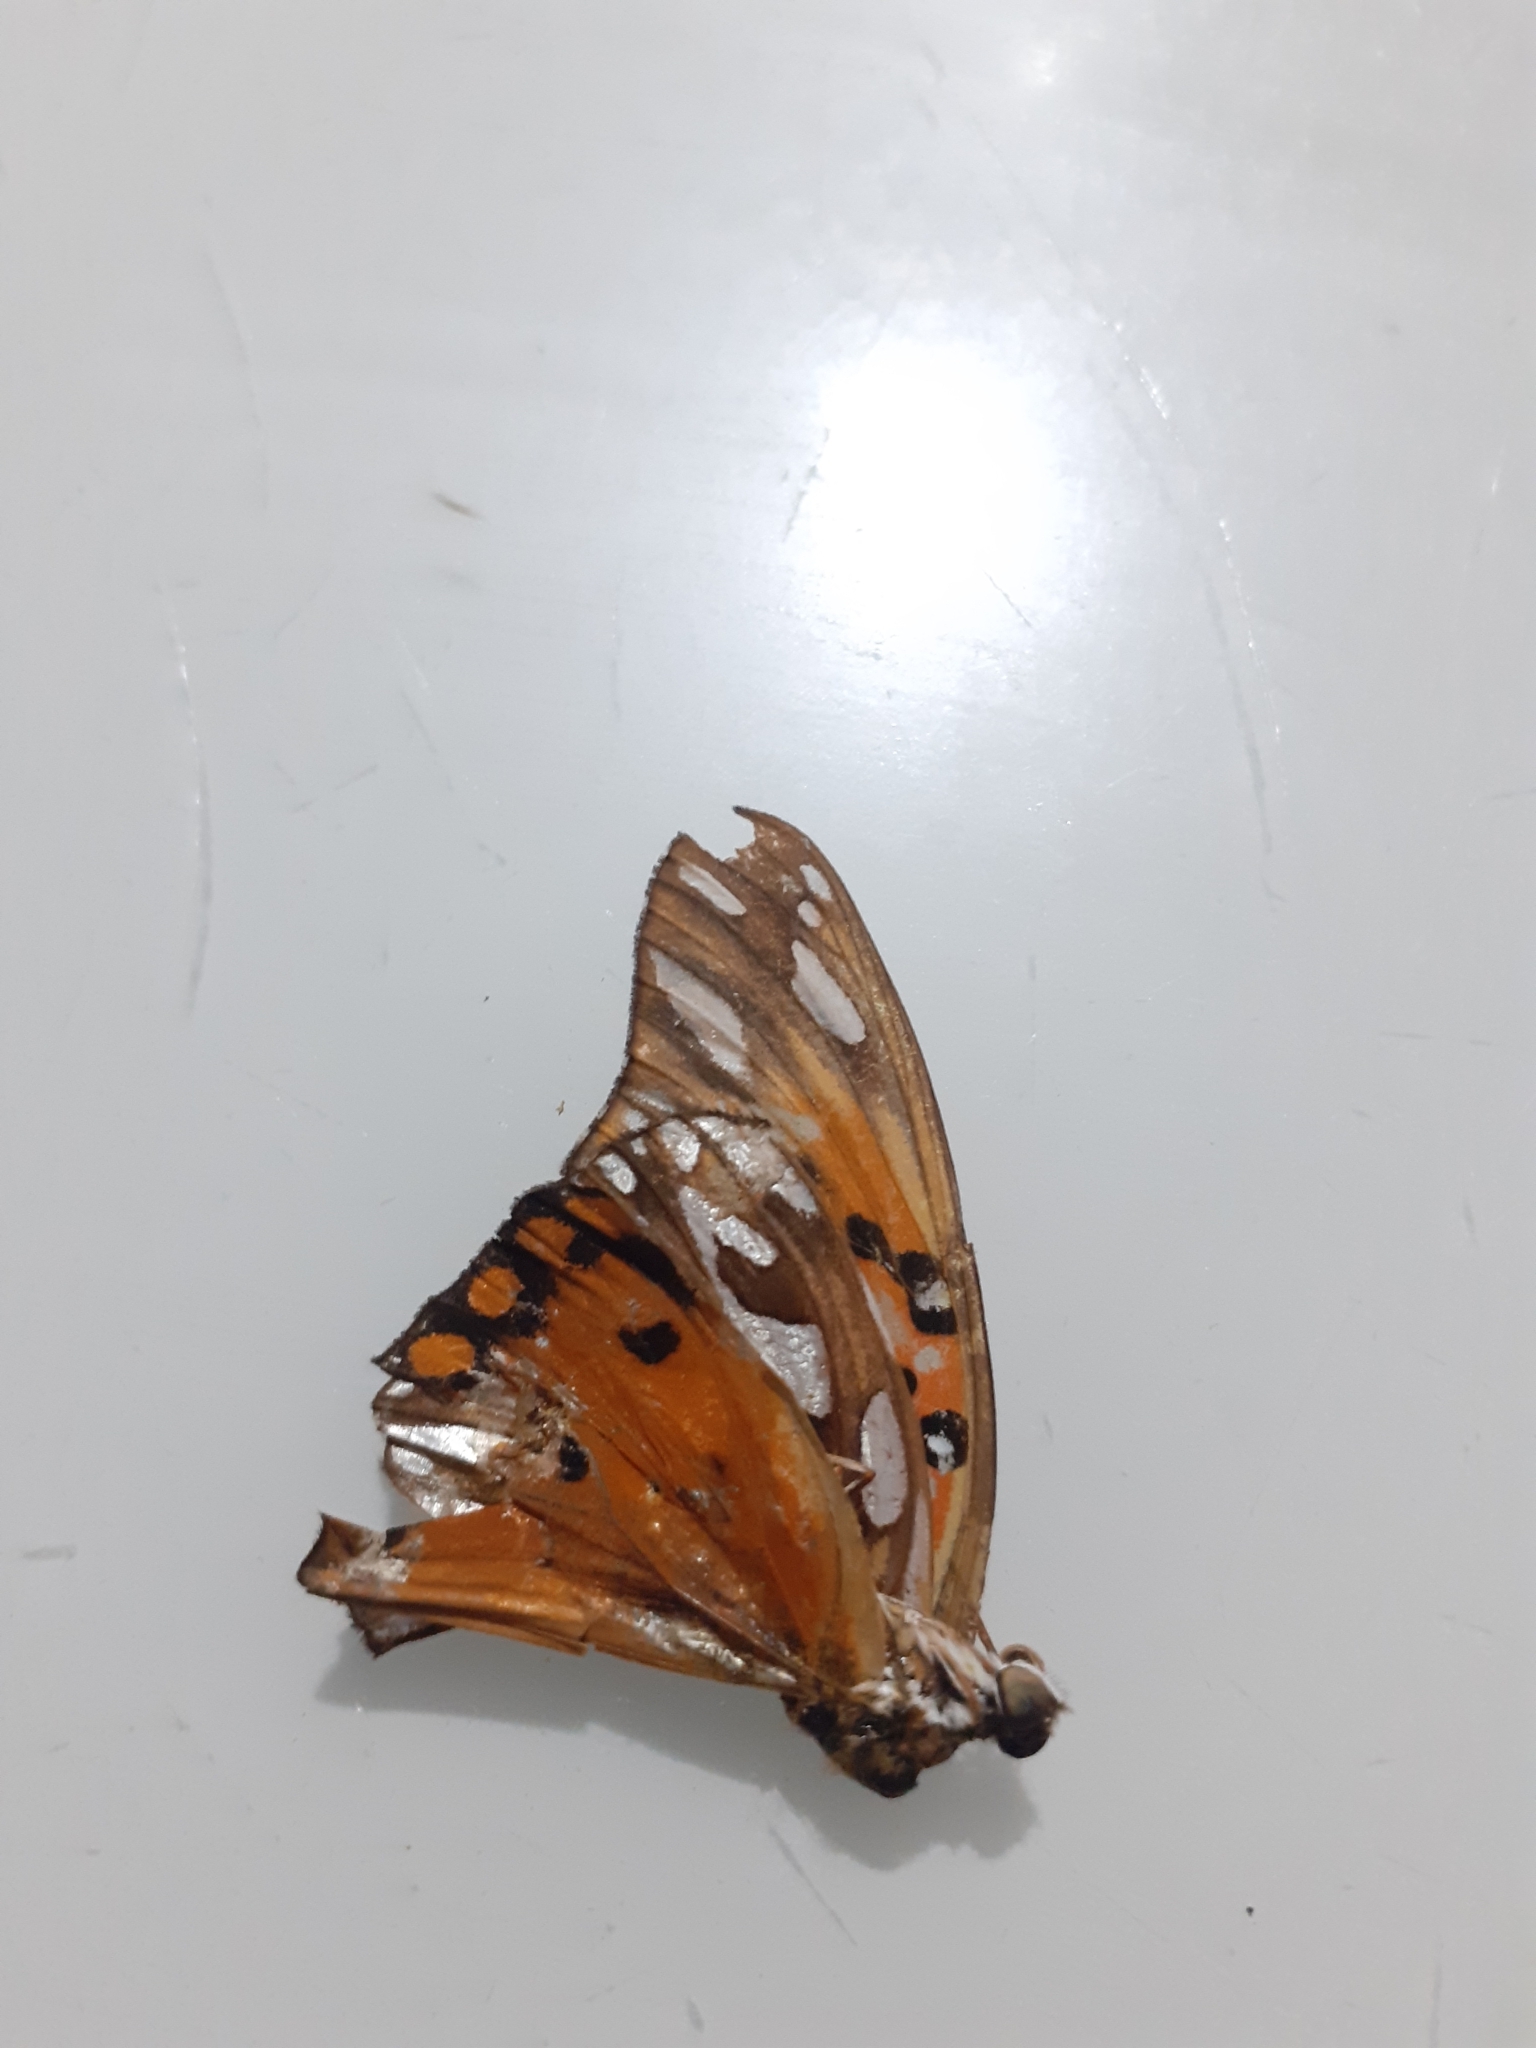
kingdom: Animalia
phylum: Arthropoda
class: Insecta
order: Lepidoptera
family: Nymphalidae
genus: Dione
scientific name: Dione vanillae
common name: Gulf fritillary
